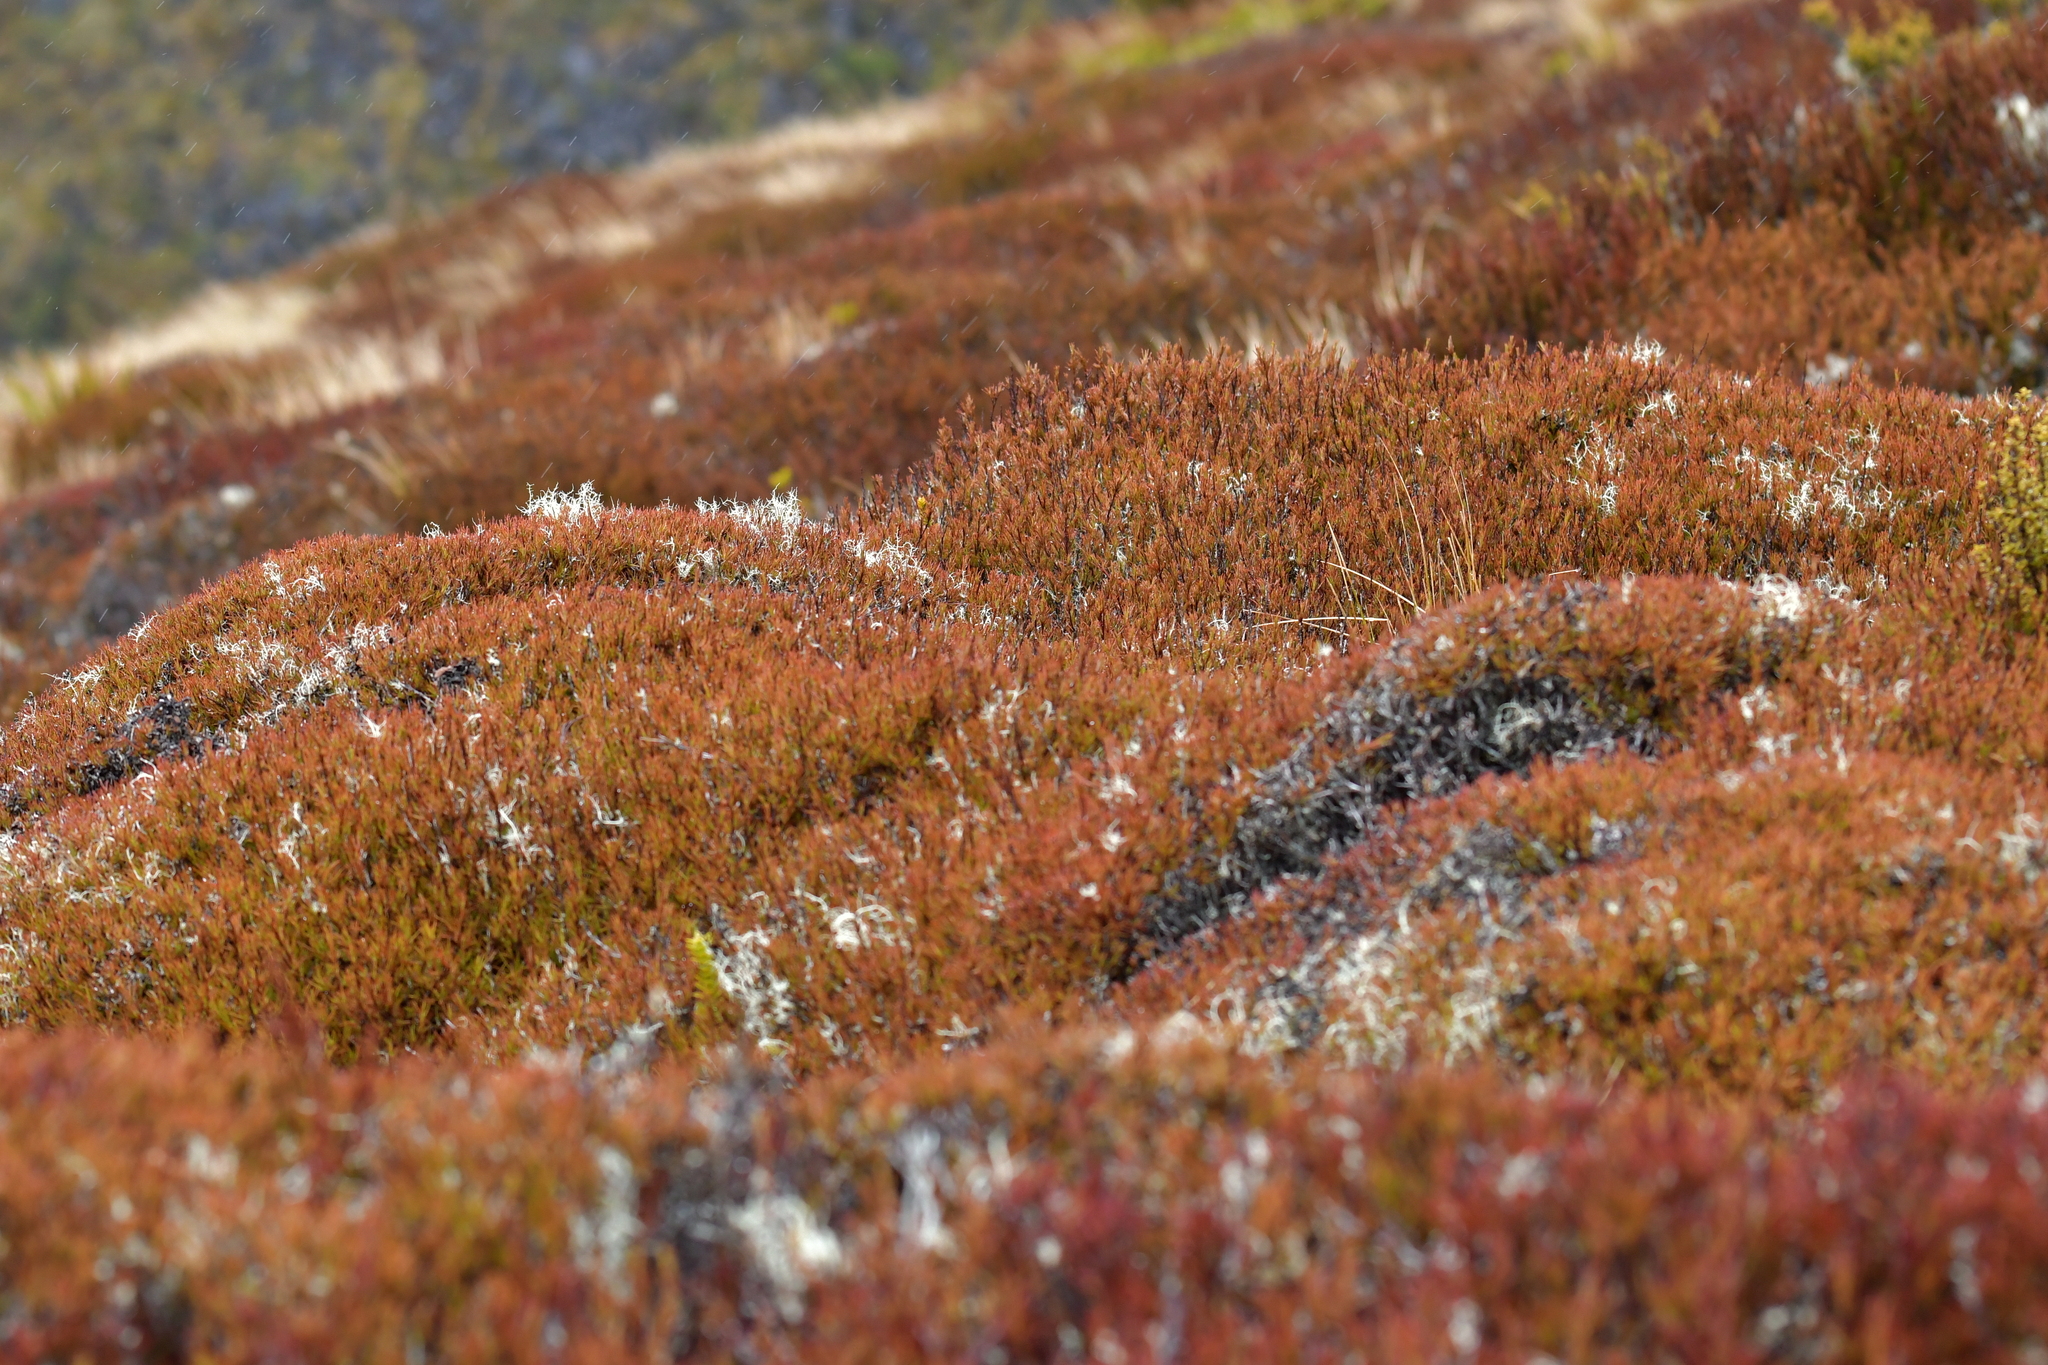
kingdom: Plantae
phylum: Tracheophyta
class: Magnoliopsida
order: Ericales
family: Ericaceae
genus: Dracophyllum
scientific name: Dracophyllum rosmarinifolium
